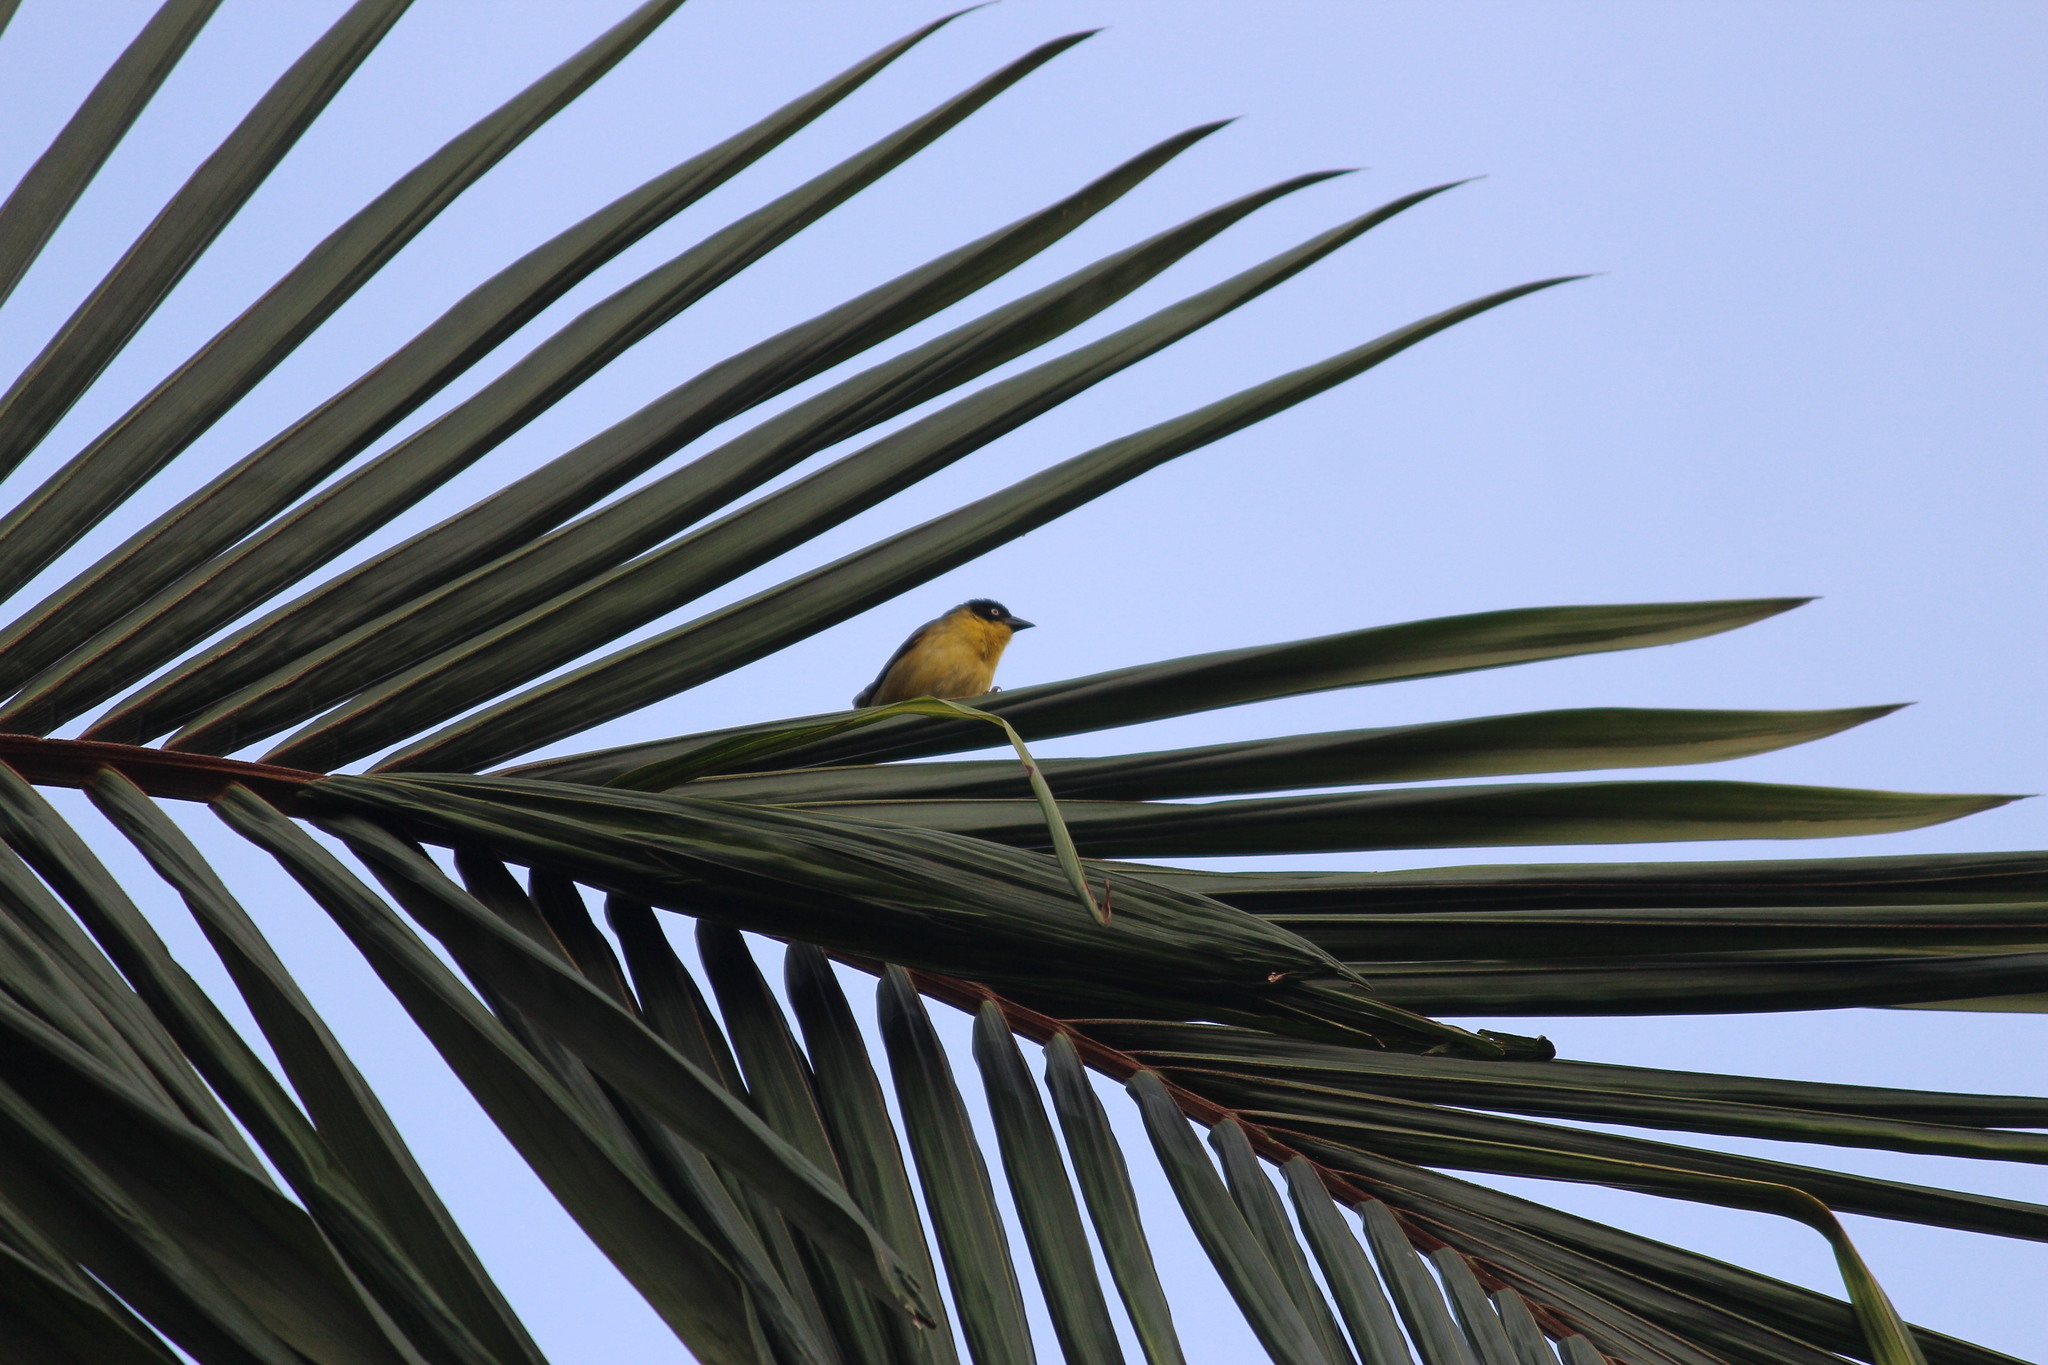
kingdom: Animalia
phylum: Chordata
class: Aves
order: Passeriformes
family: Ploceidae
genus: Ploceus
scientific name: Ploceus baglafecht
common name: Baglafecht weaver
